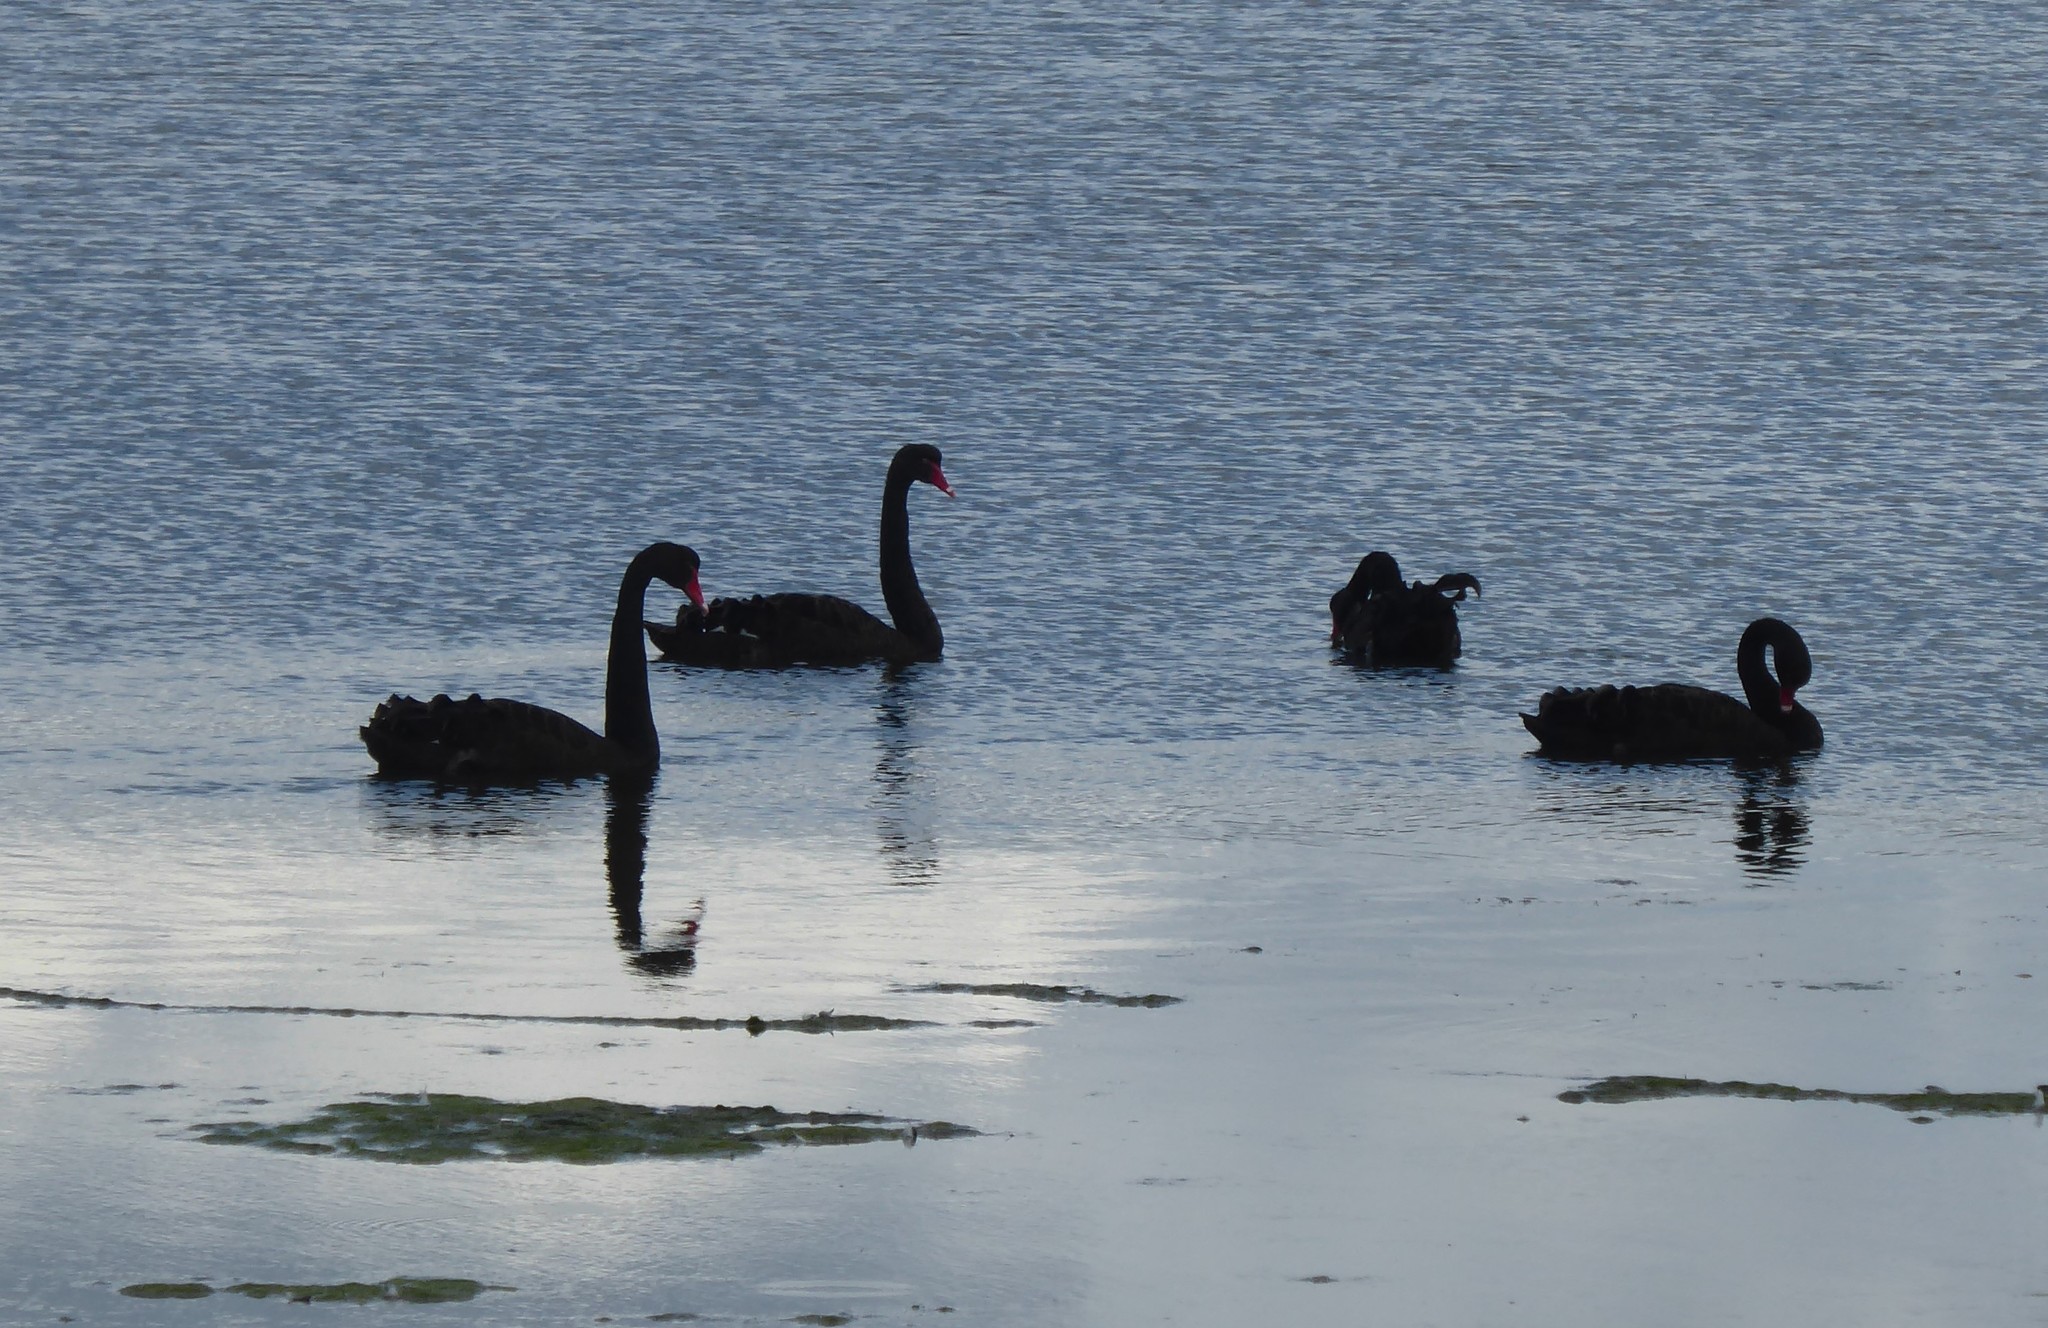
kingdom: Animalia
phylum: Chordata
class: Aves
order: Anseriformes
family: Anatidae
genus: Cygnus
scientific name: Cygnus atratus
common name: Black swan
